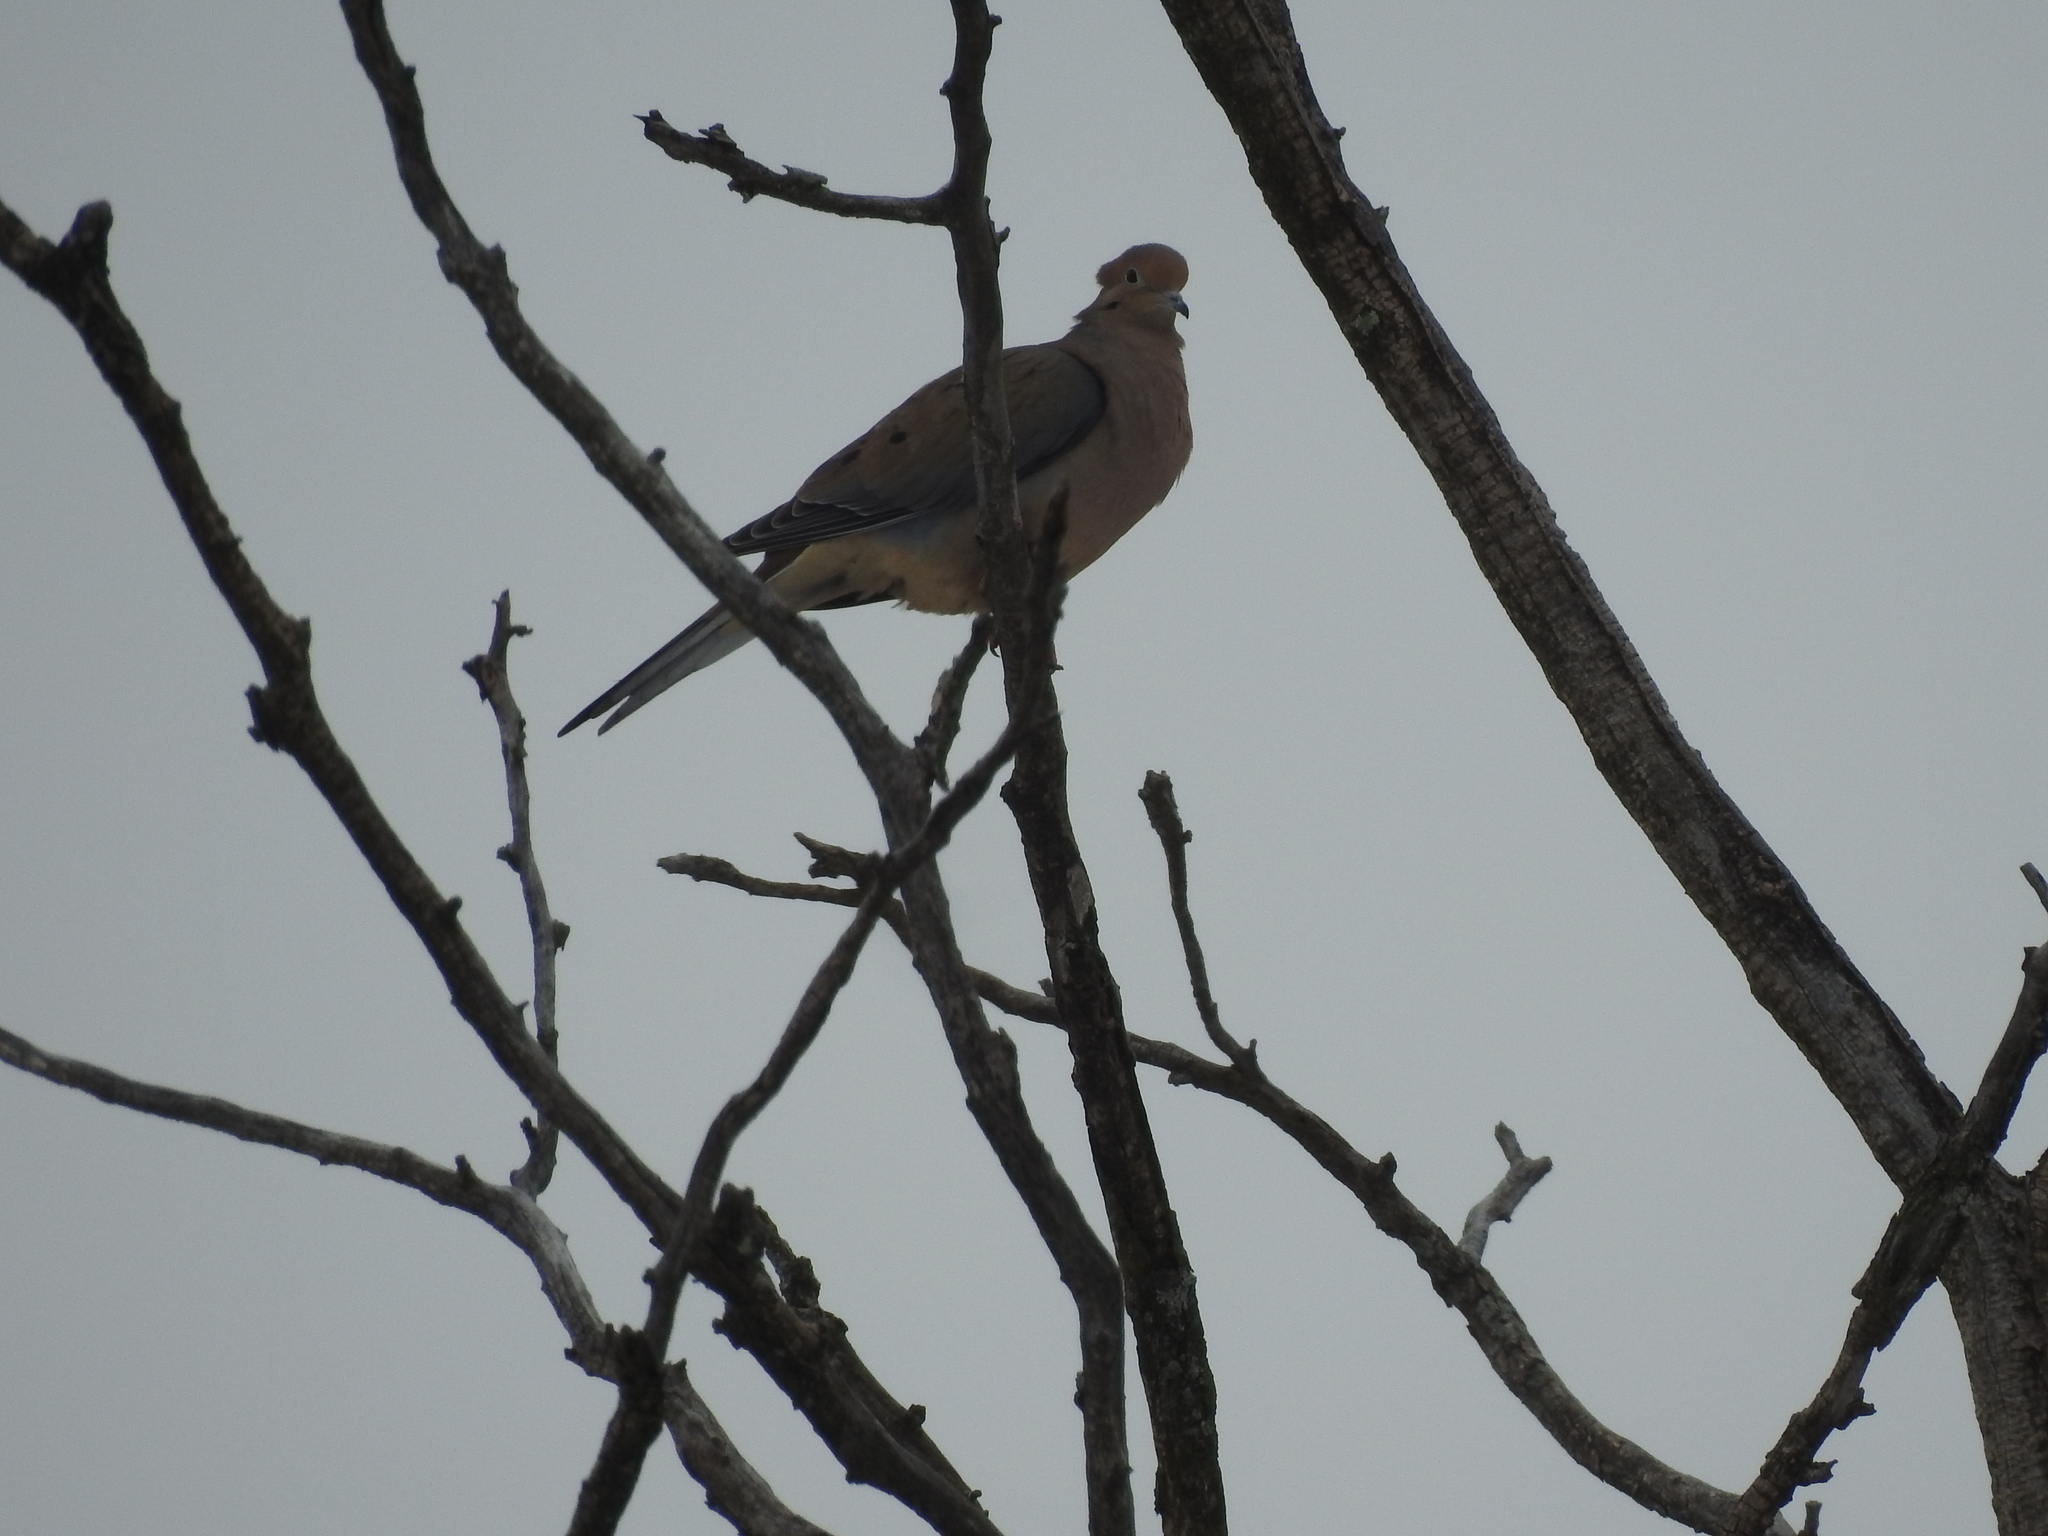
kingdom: Animalia
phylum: Chordata
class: Aves
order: Columbiformes
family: Columbidae
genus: Zenaida
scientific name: Zenaida macroura
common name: Mourning dove
